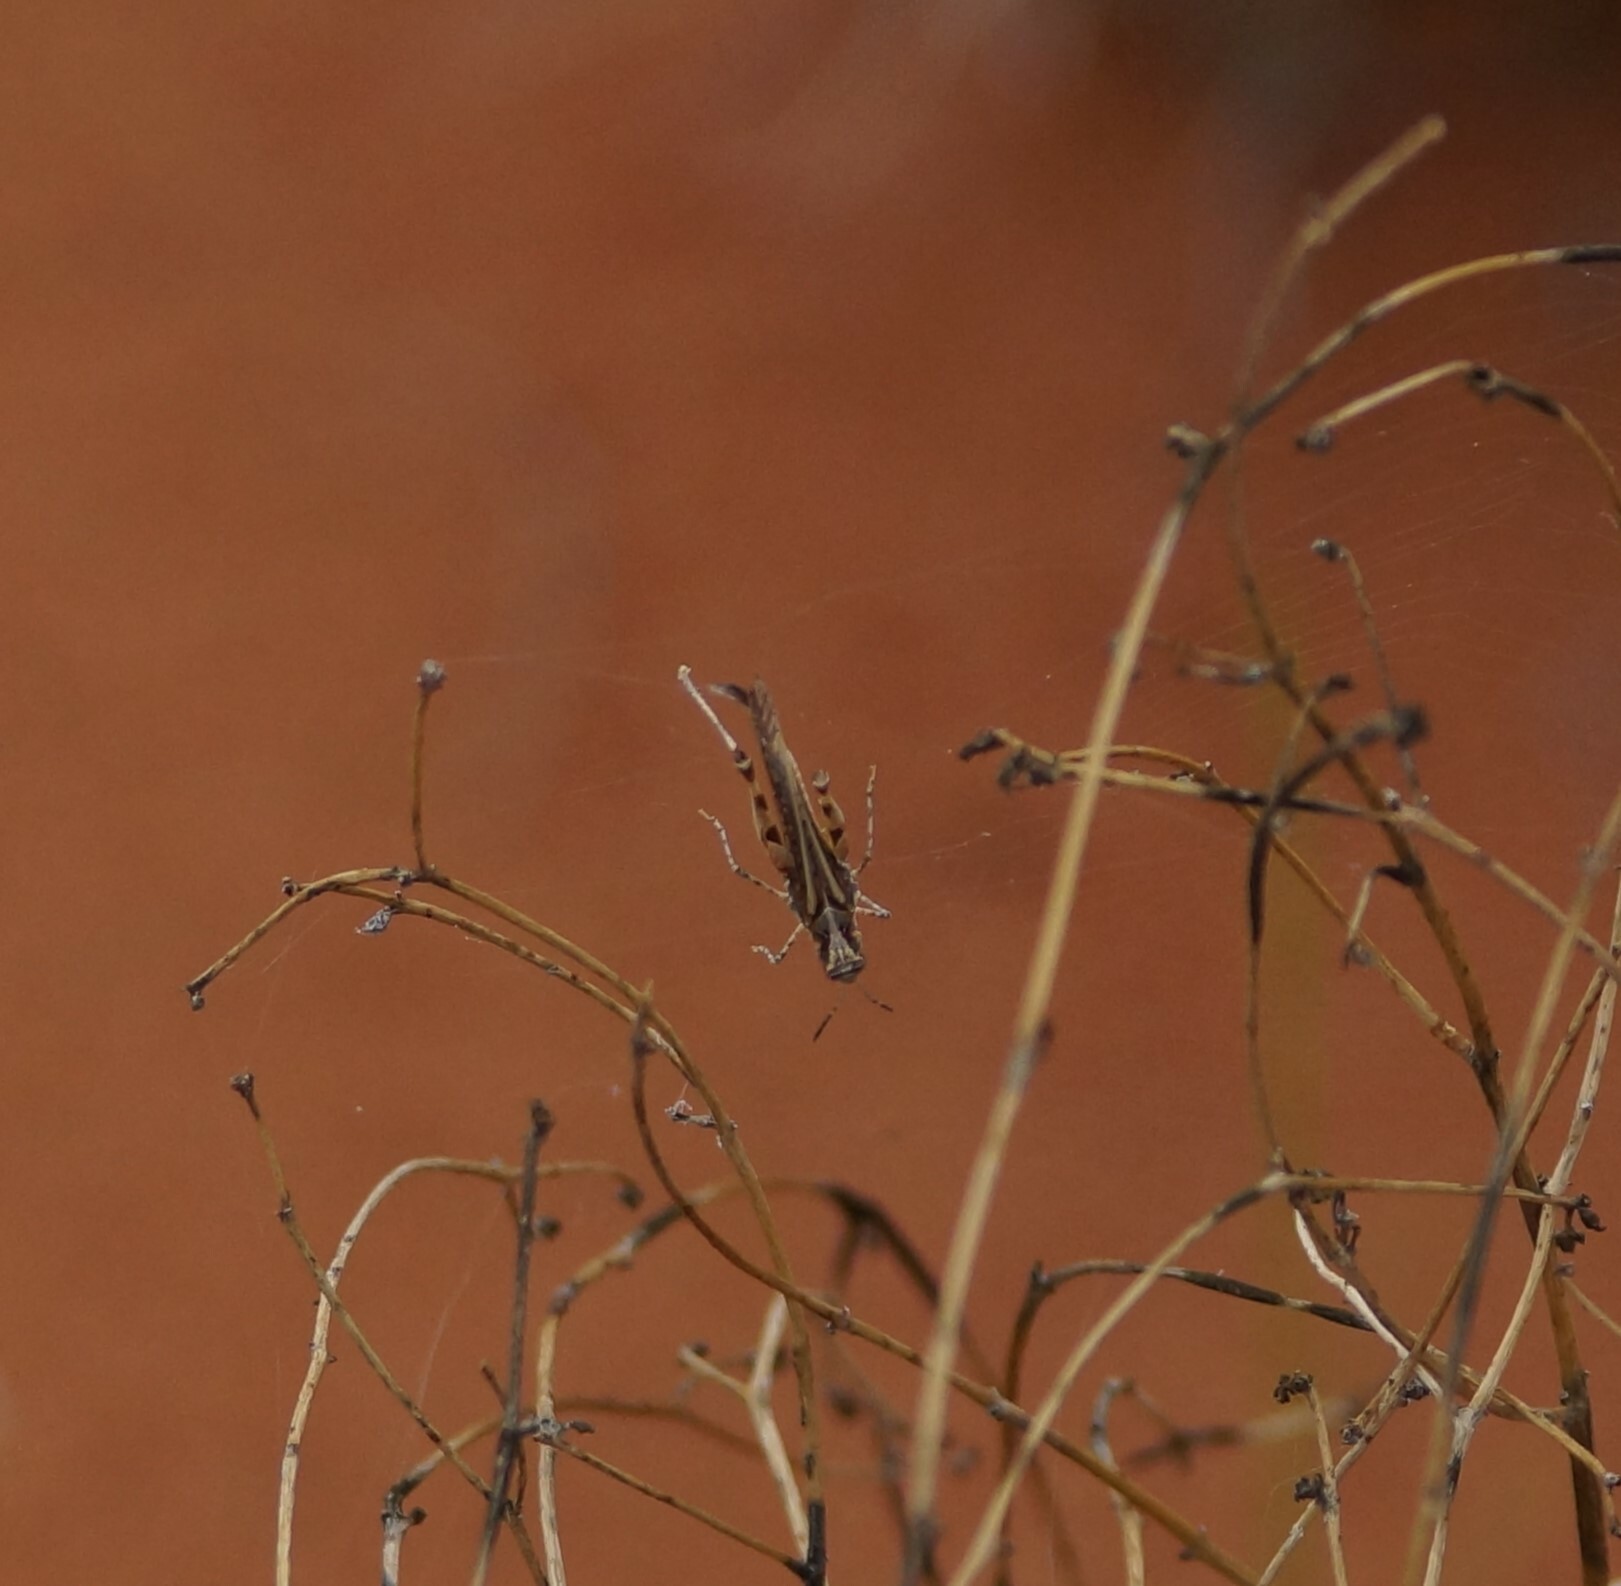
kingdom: Animalia
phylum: Arthropoda
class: Insecta
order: Orthoptera
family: Acrididae
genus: Pycnostictus
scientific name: Pycnostictus seriatus
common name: Common bandwing
